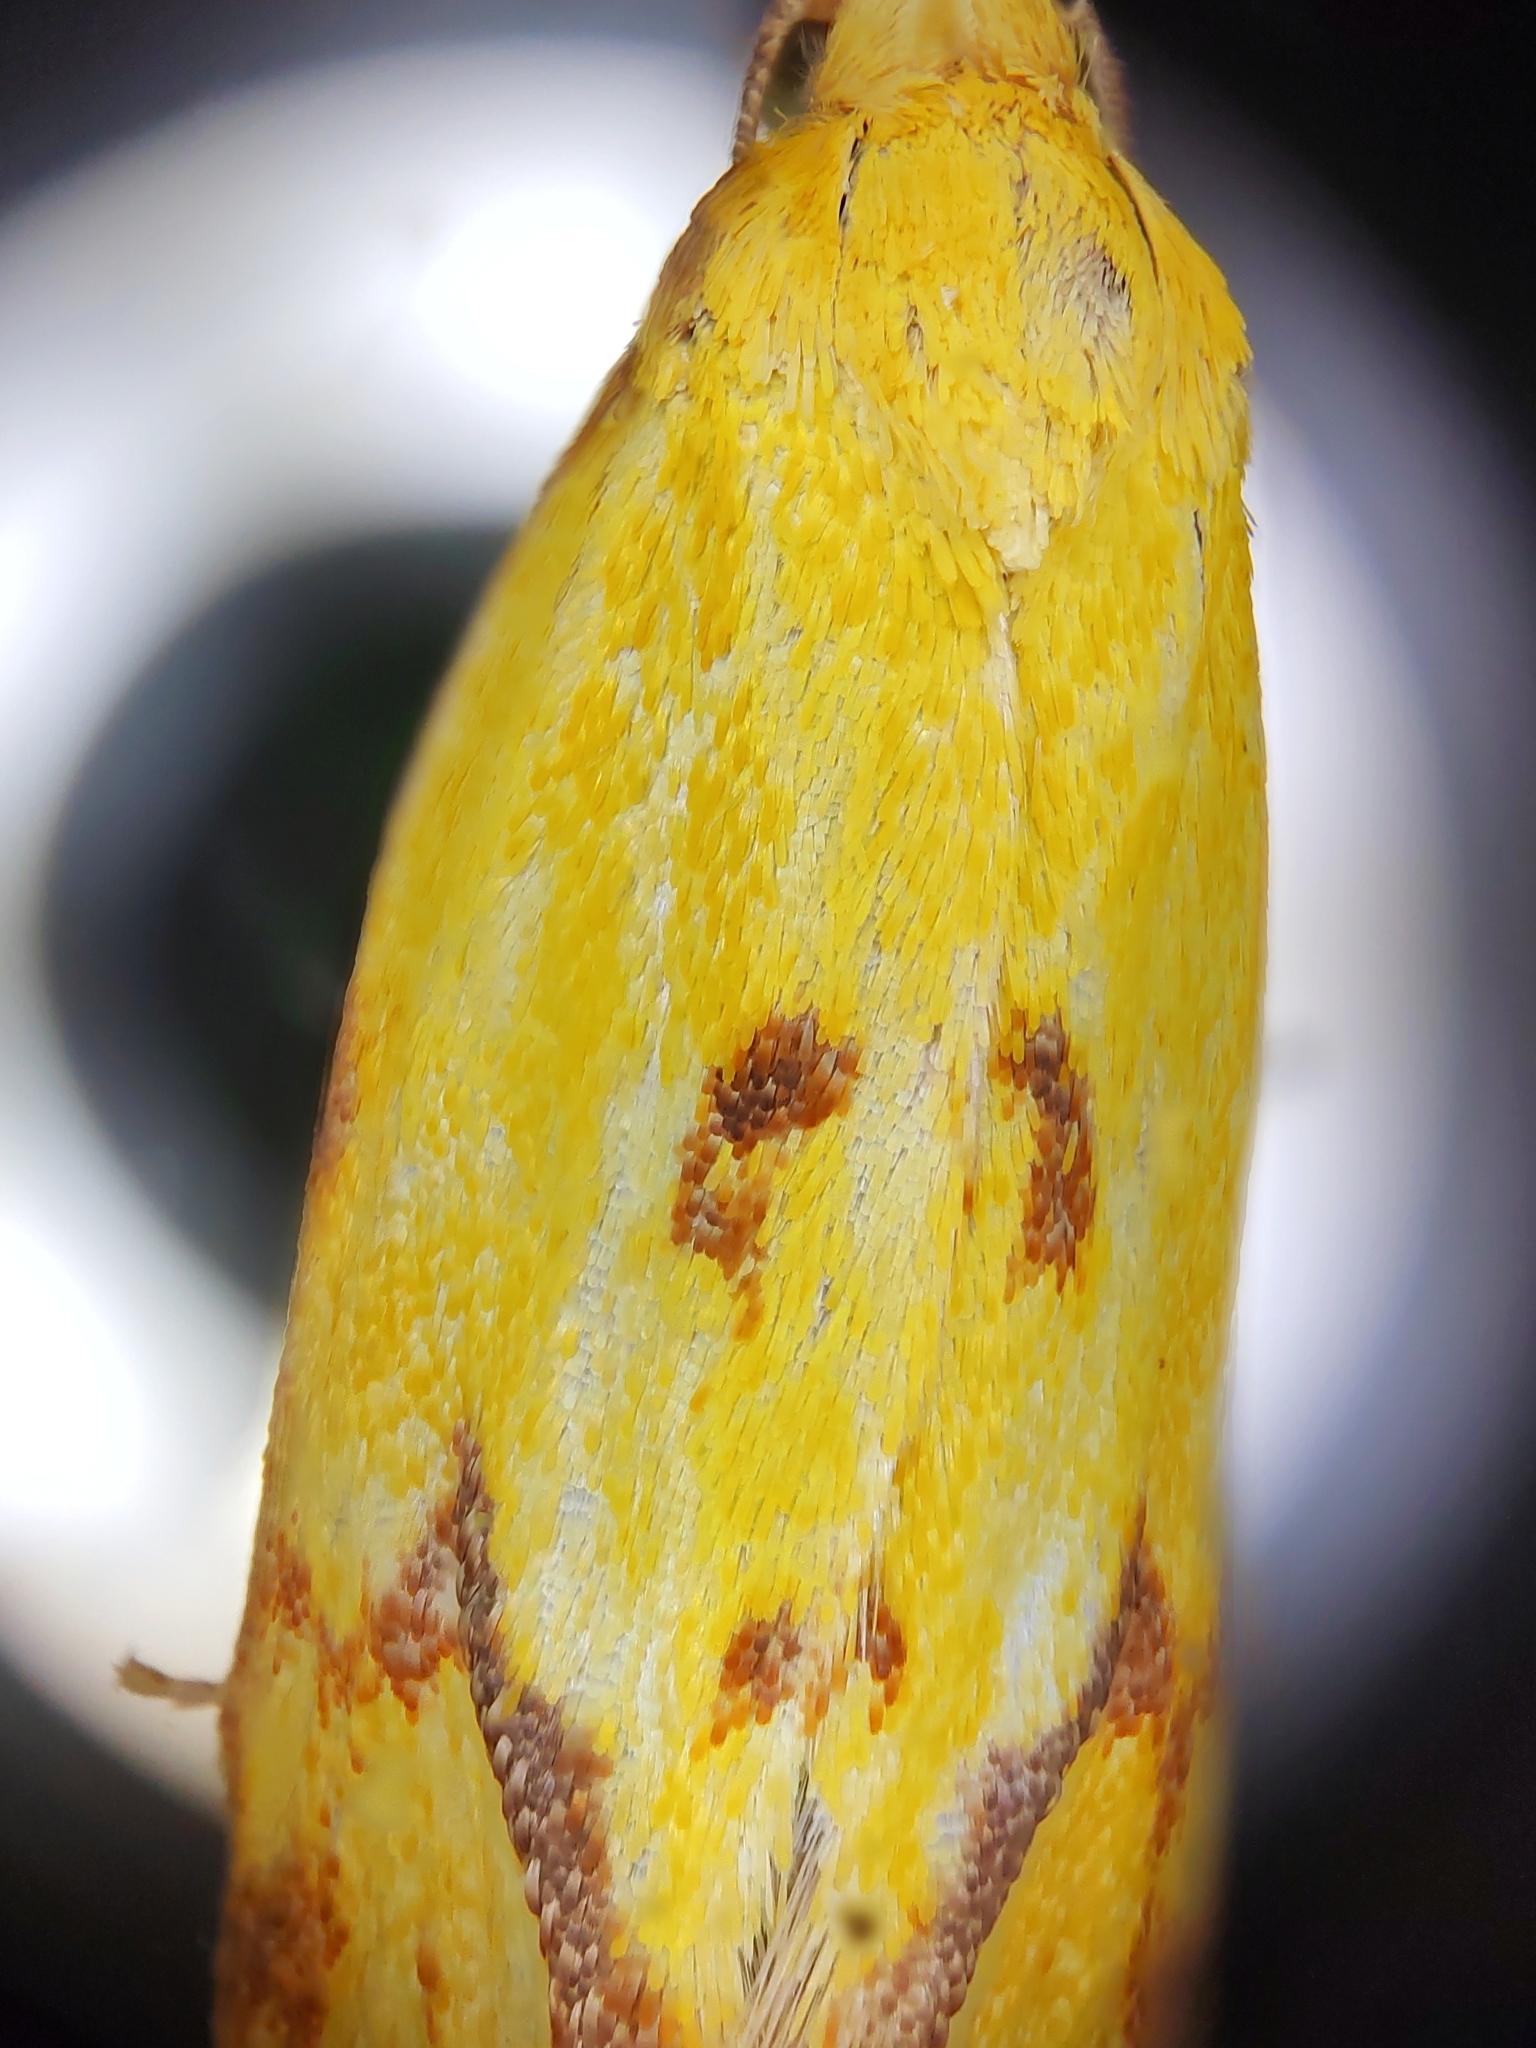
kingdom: Animalia
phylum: Arthropoda
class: Insecta
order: Lepidoptera
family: Tortricidae
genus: Agapeta
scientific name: Agapeta hamana
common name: Common yellow conch
